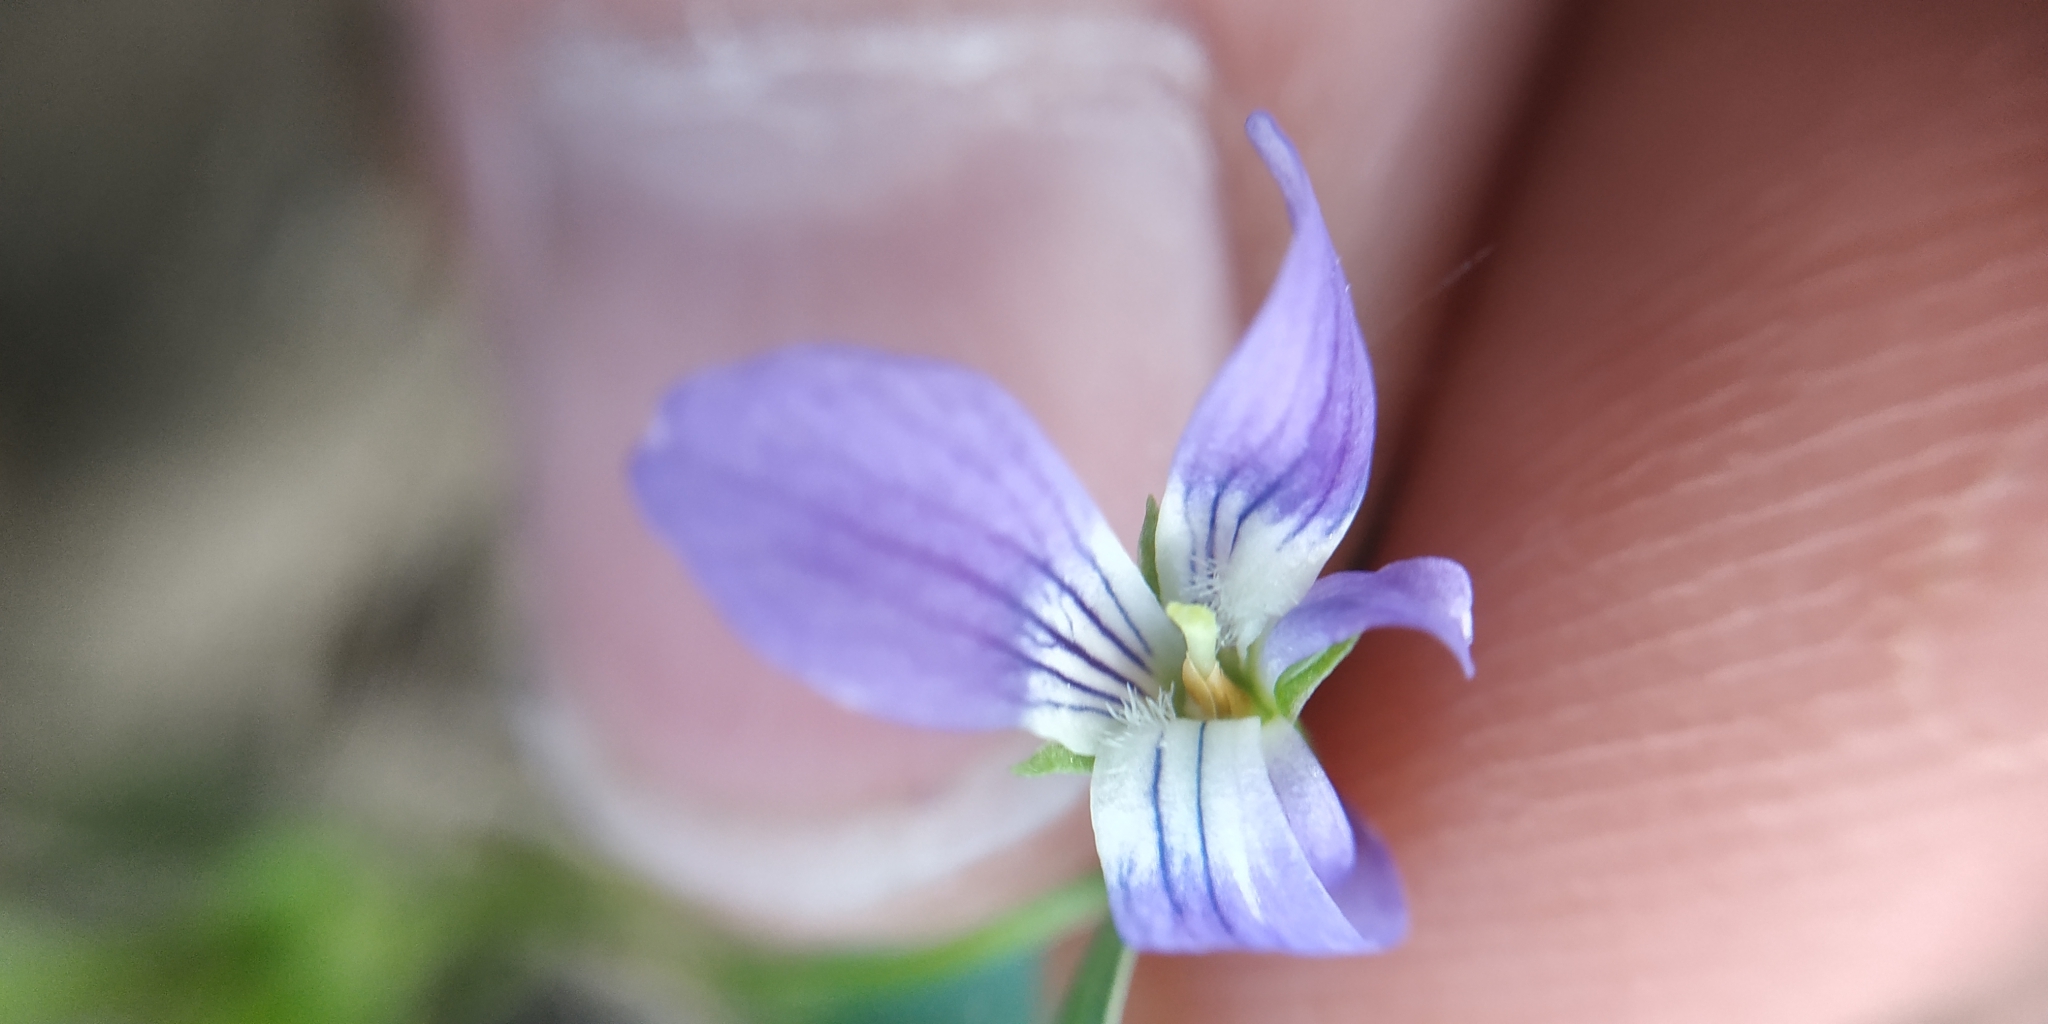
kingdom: Plantae
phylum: Tracheophyta
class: Magnoliopsida
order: Malpighiales
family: Violaceae
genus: Viola
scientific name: Viola
